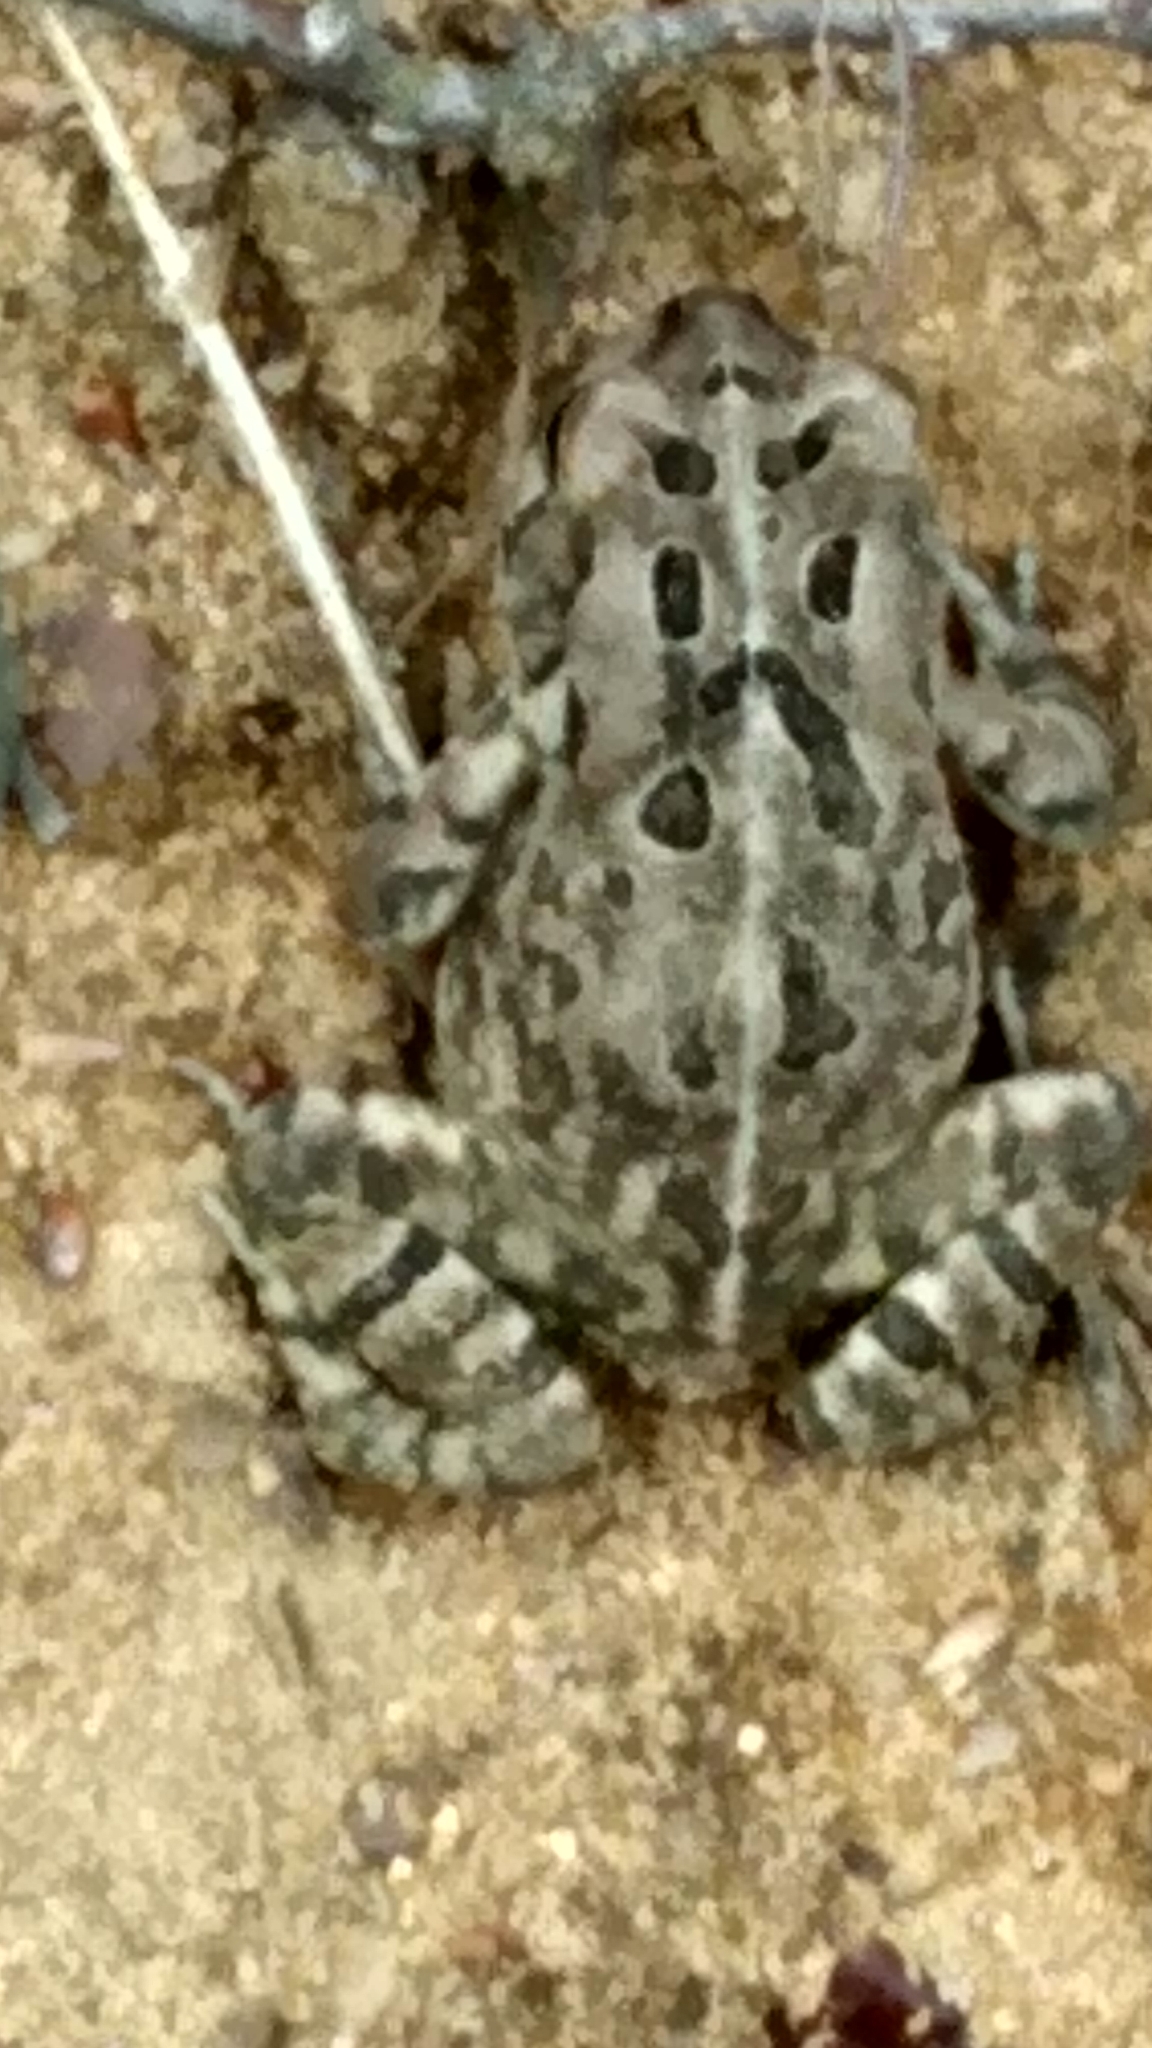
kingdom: Animalia
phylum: Chordata
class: Amphibia
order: Anura
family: Bufonidae
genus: Anaxyrus
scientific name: Anaxyrus fowleri
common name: Fowler's toad
